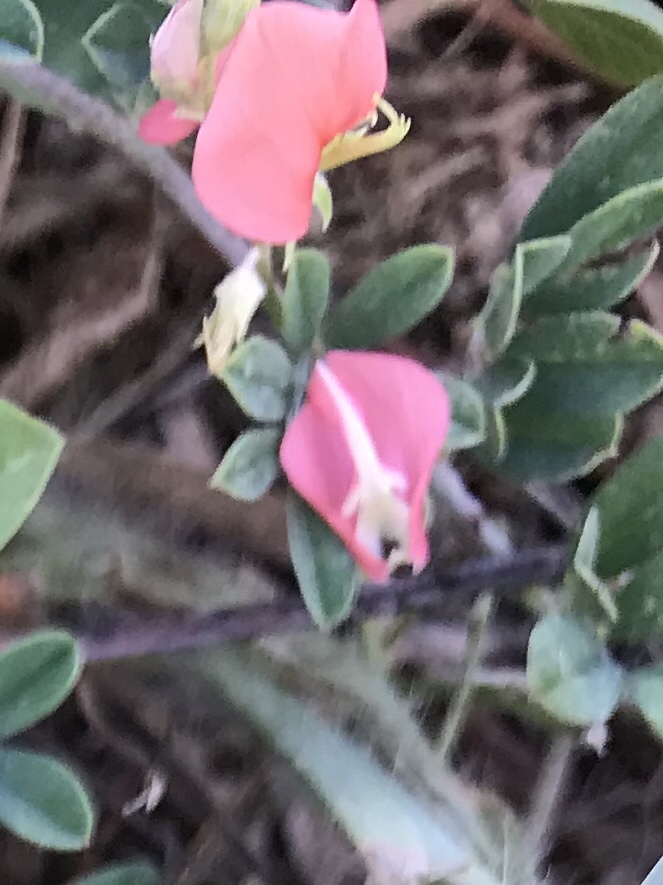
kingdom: Plantae
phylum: Tracheophyta
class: Magnoliopsida
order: Fabales
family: Fabaceae
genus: Indigofera
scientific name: Indigofera miniata
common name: Coast indigo
